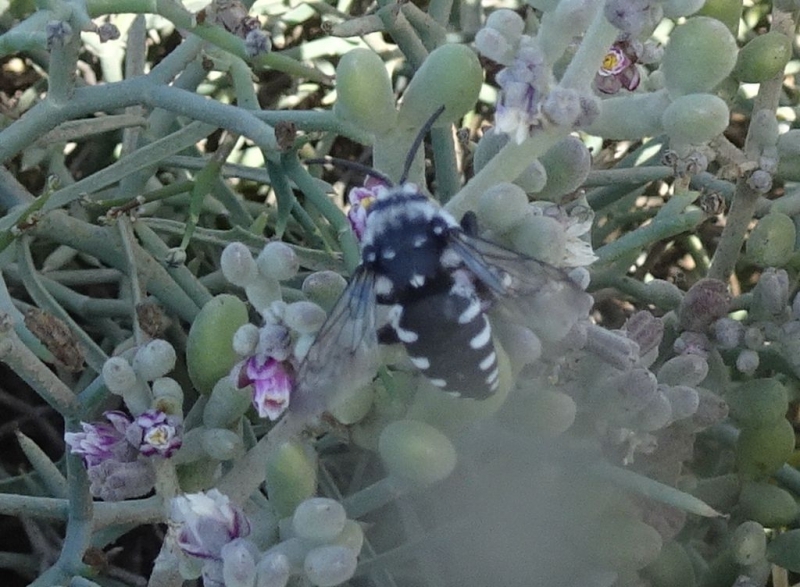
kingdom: Animalia
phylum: Arthropoda
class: Insecta
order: Hymenoptera
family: Apidae
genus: Thyreus
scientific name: Thyreus histrionicus
